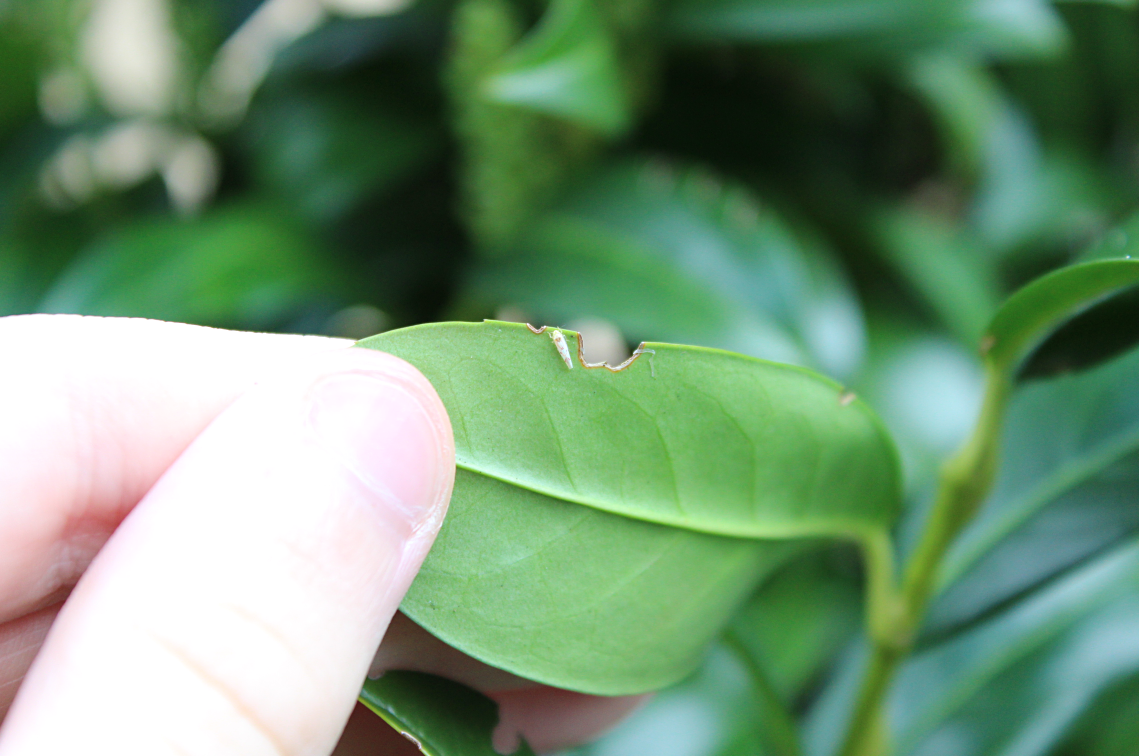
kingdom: Animalia
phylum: Arthropoda
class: Insecta
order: Hemiptera
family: Cicadellidae
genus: Zygina
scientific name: Zygina flammigera
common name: Leafhopper
